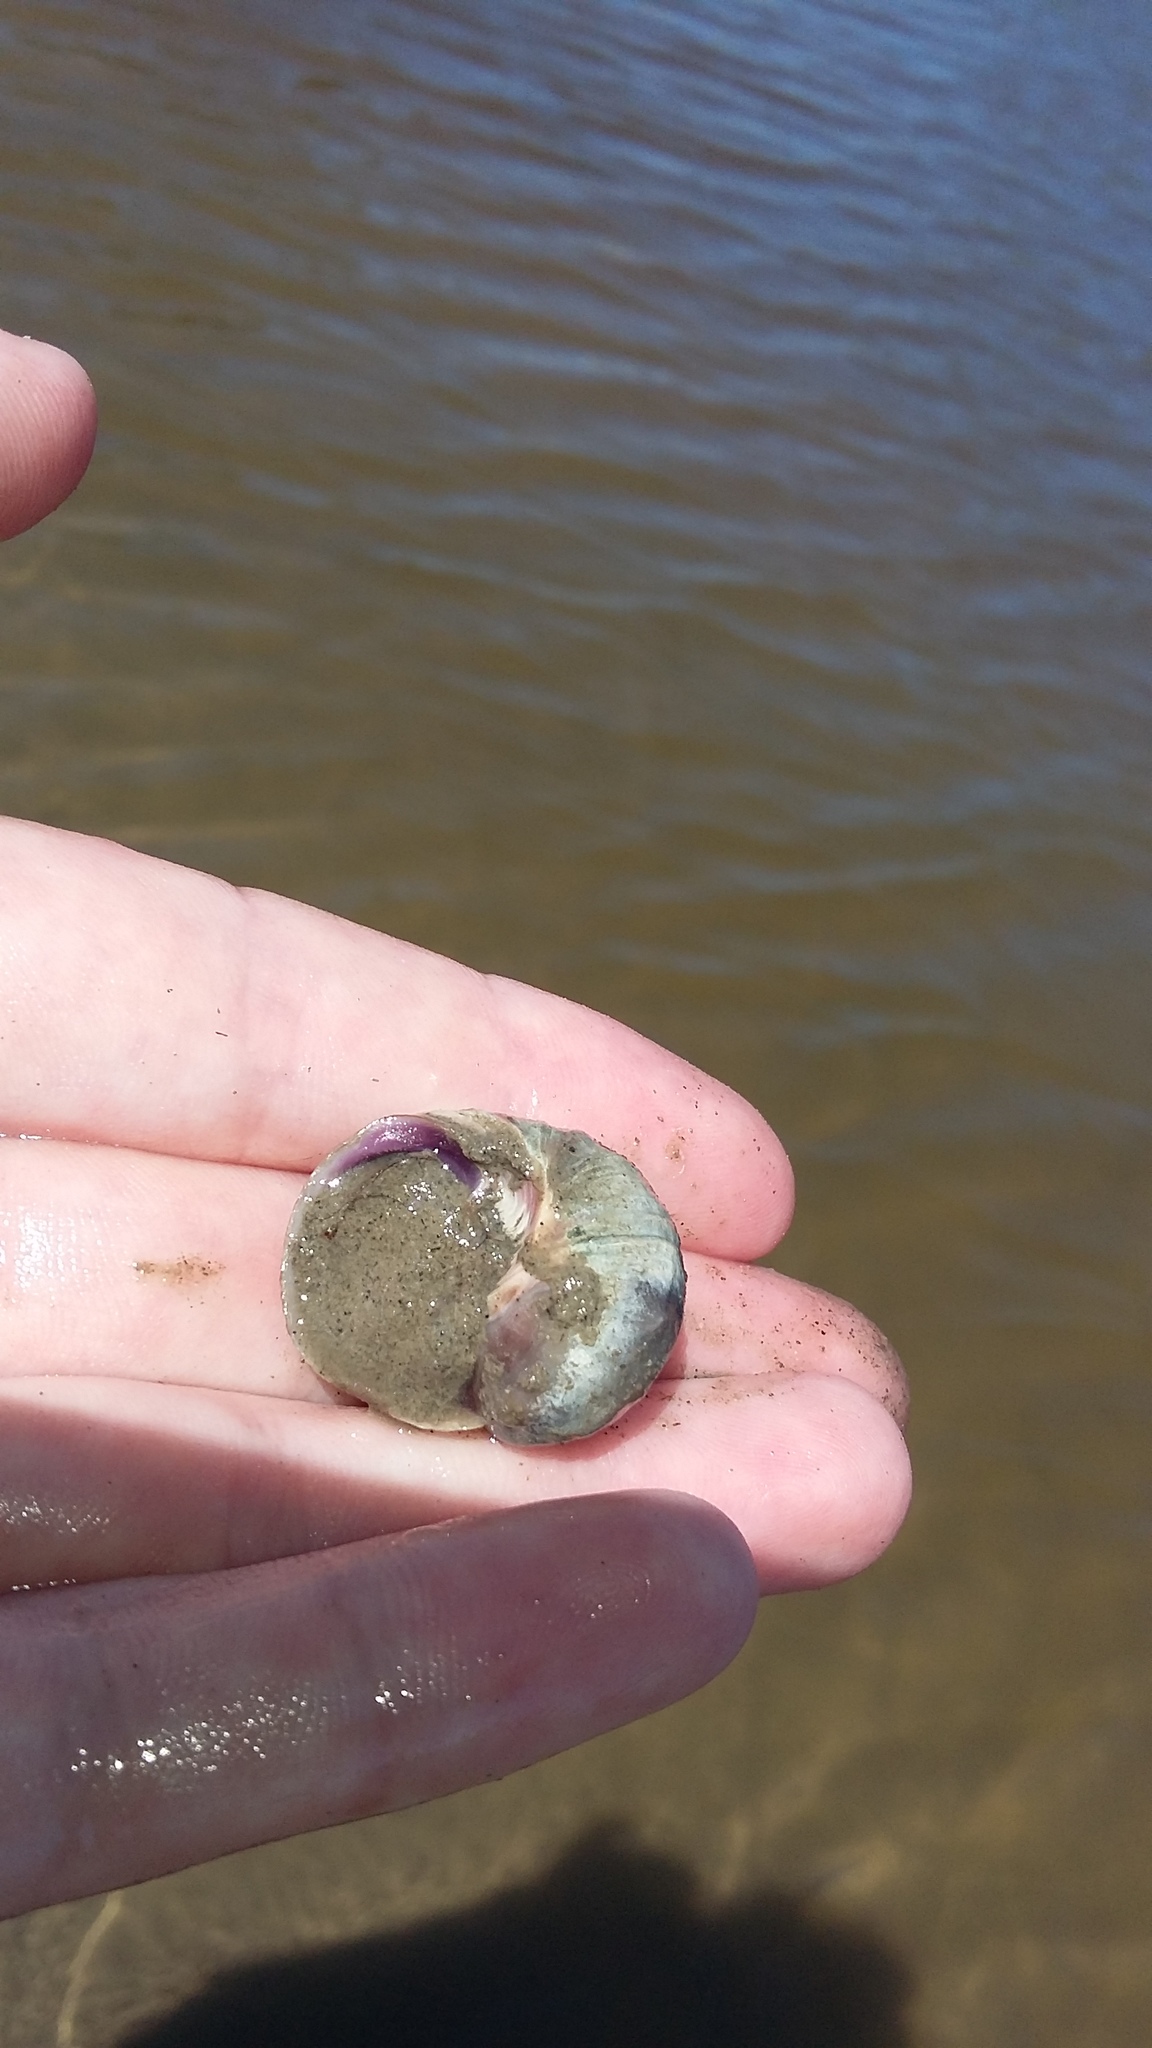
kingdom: Animalia
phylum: Mollusca
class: Gastropoda
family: Amphibolidae
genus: Amphibola
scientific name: Amphibola crenata
